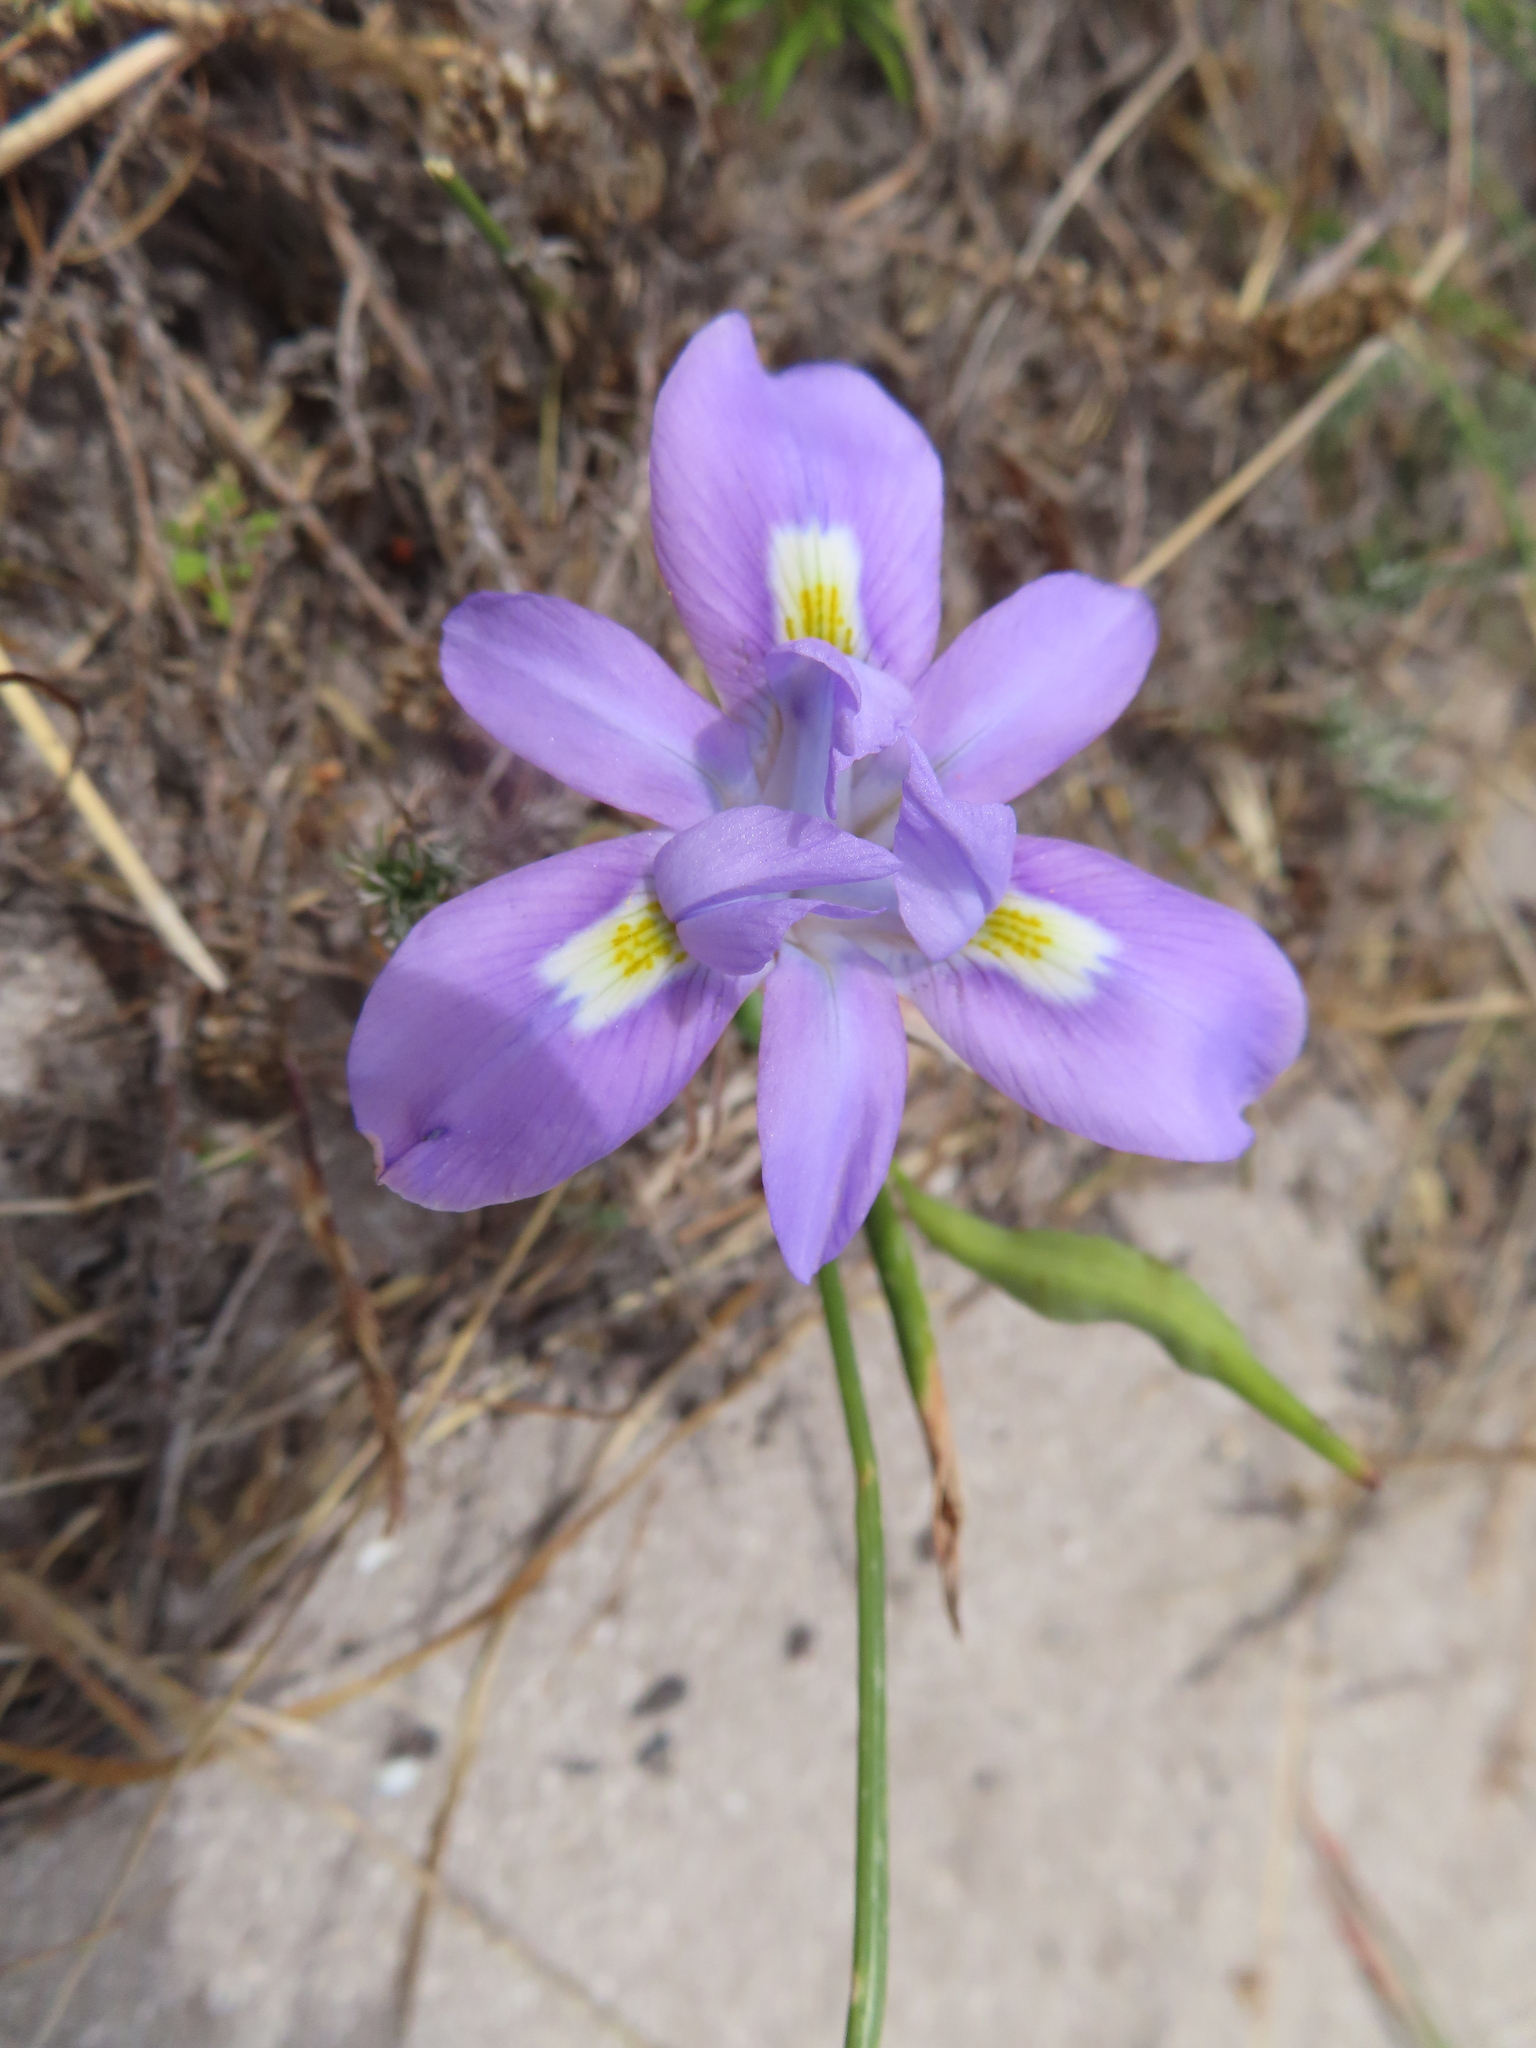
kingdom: Plantae
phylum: Tracheophyta
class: Liliopsida
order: Asparagales
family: Iridaceae
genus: Moraea
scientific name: Moraea fugax
